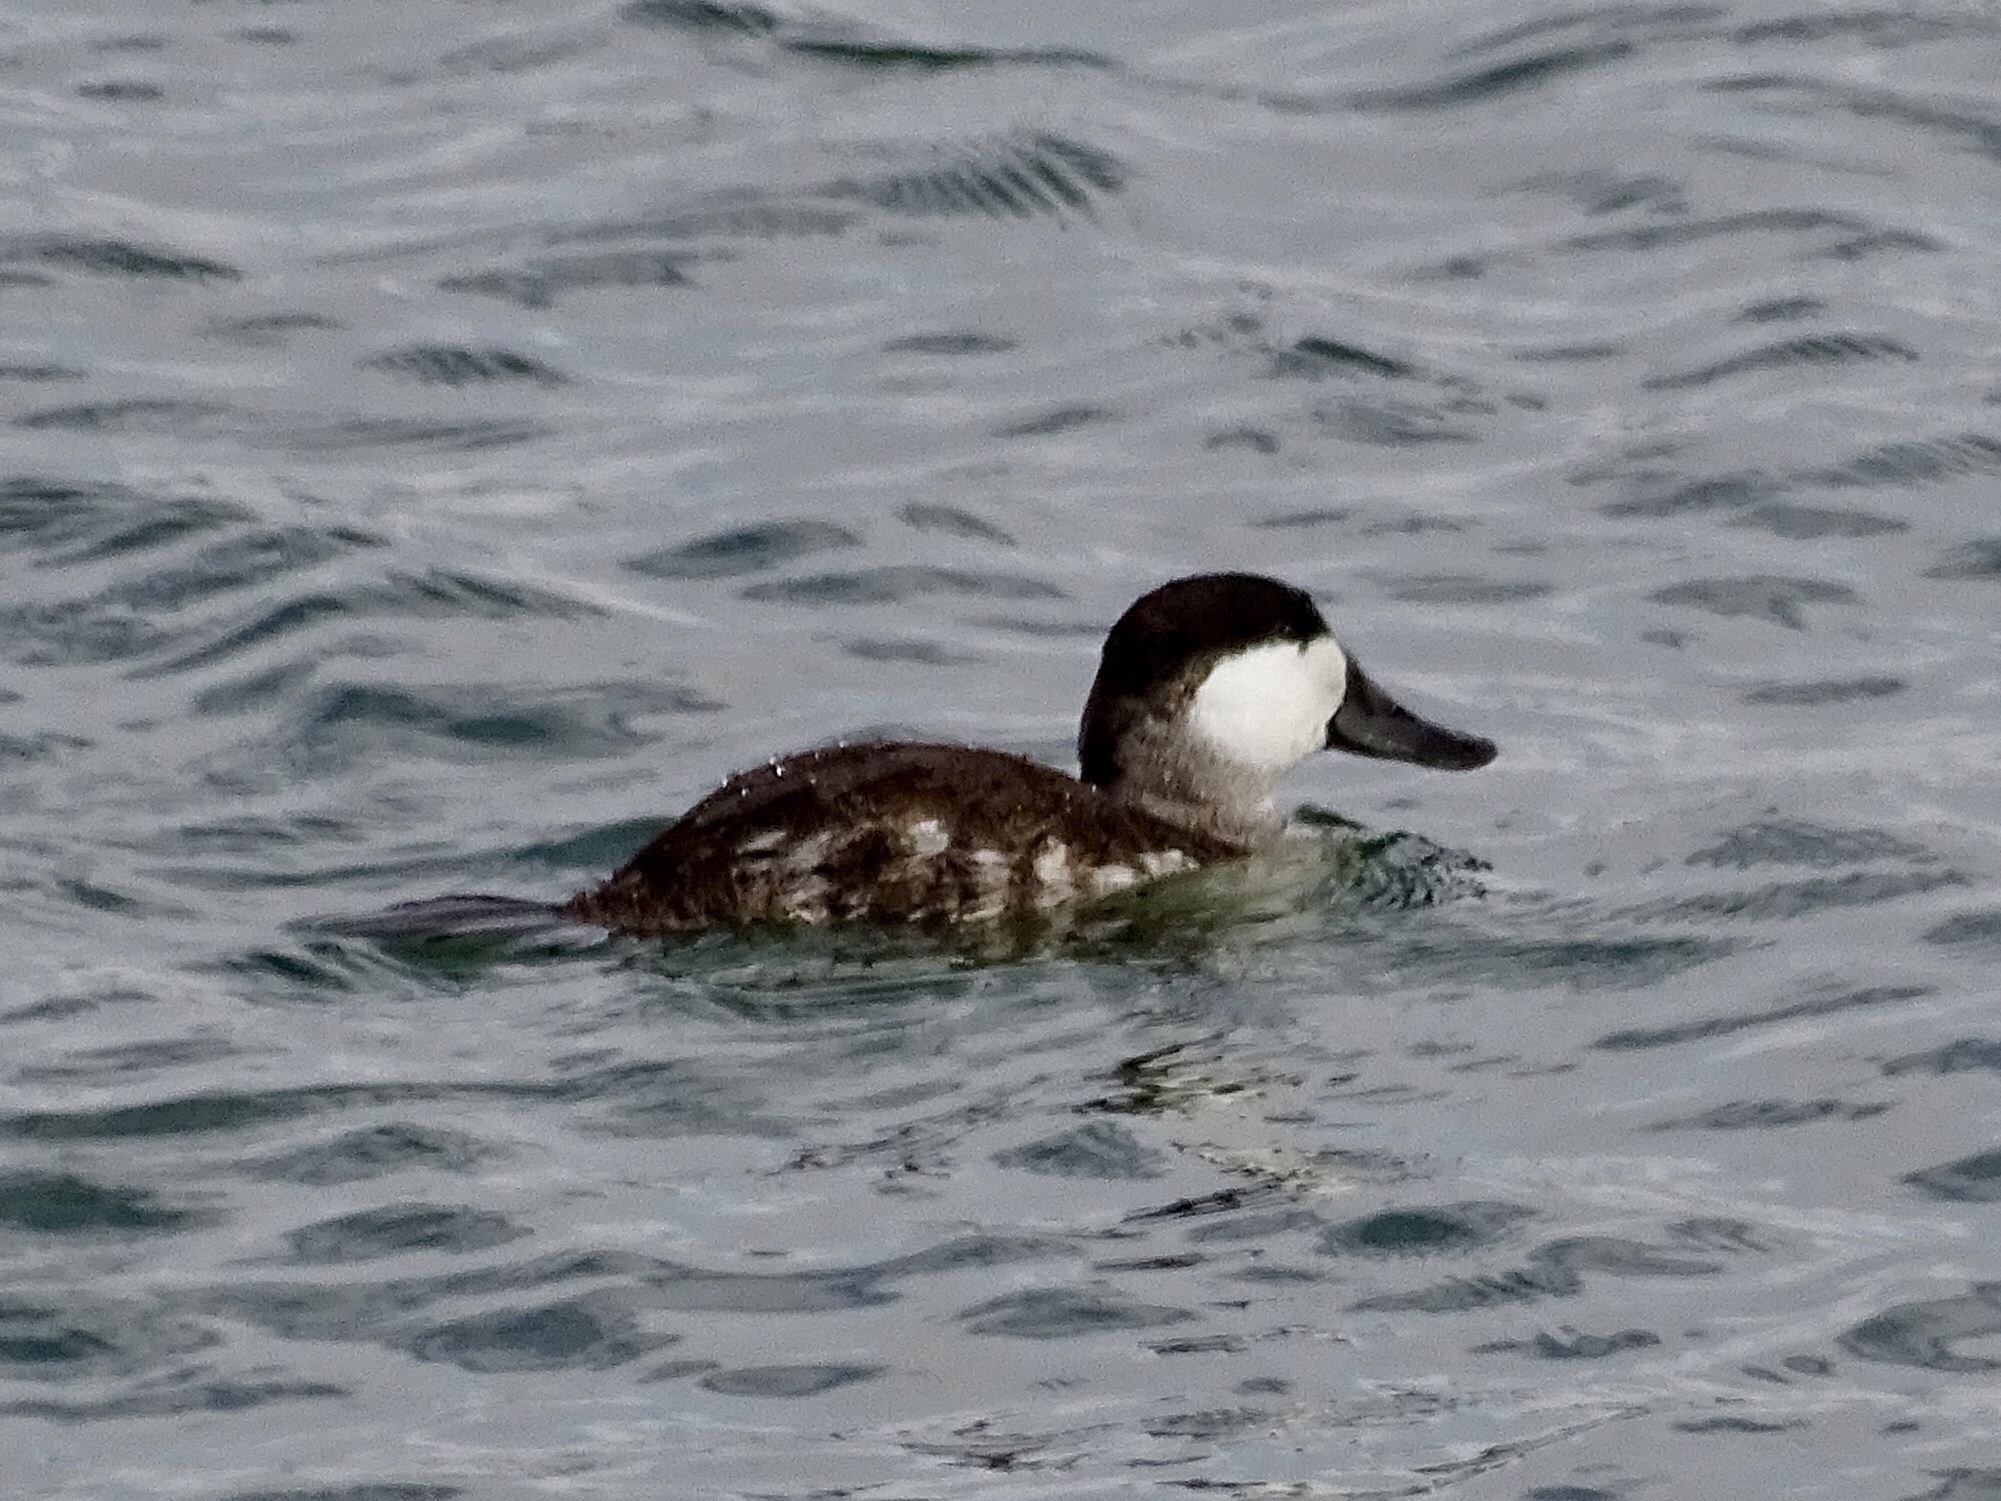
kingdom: Animalia
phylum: Chordata
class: Aves
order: Anseriformes
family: Anatidae
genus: Oxyura
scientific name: Oxyura jamaicensis
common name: Ruddy duck
